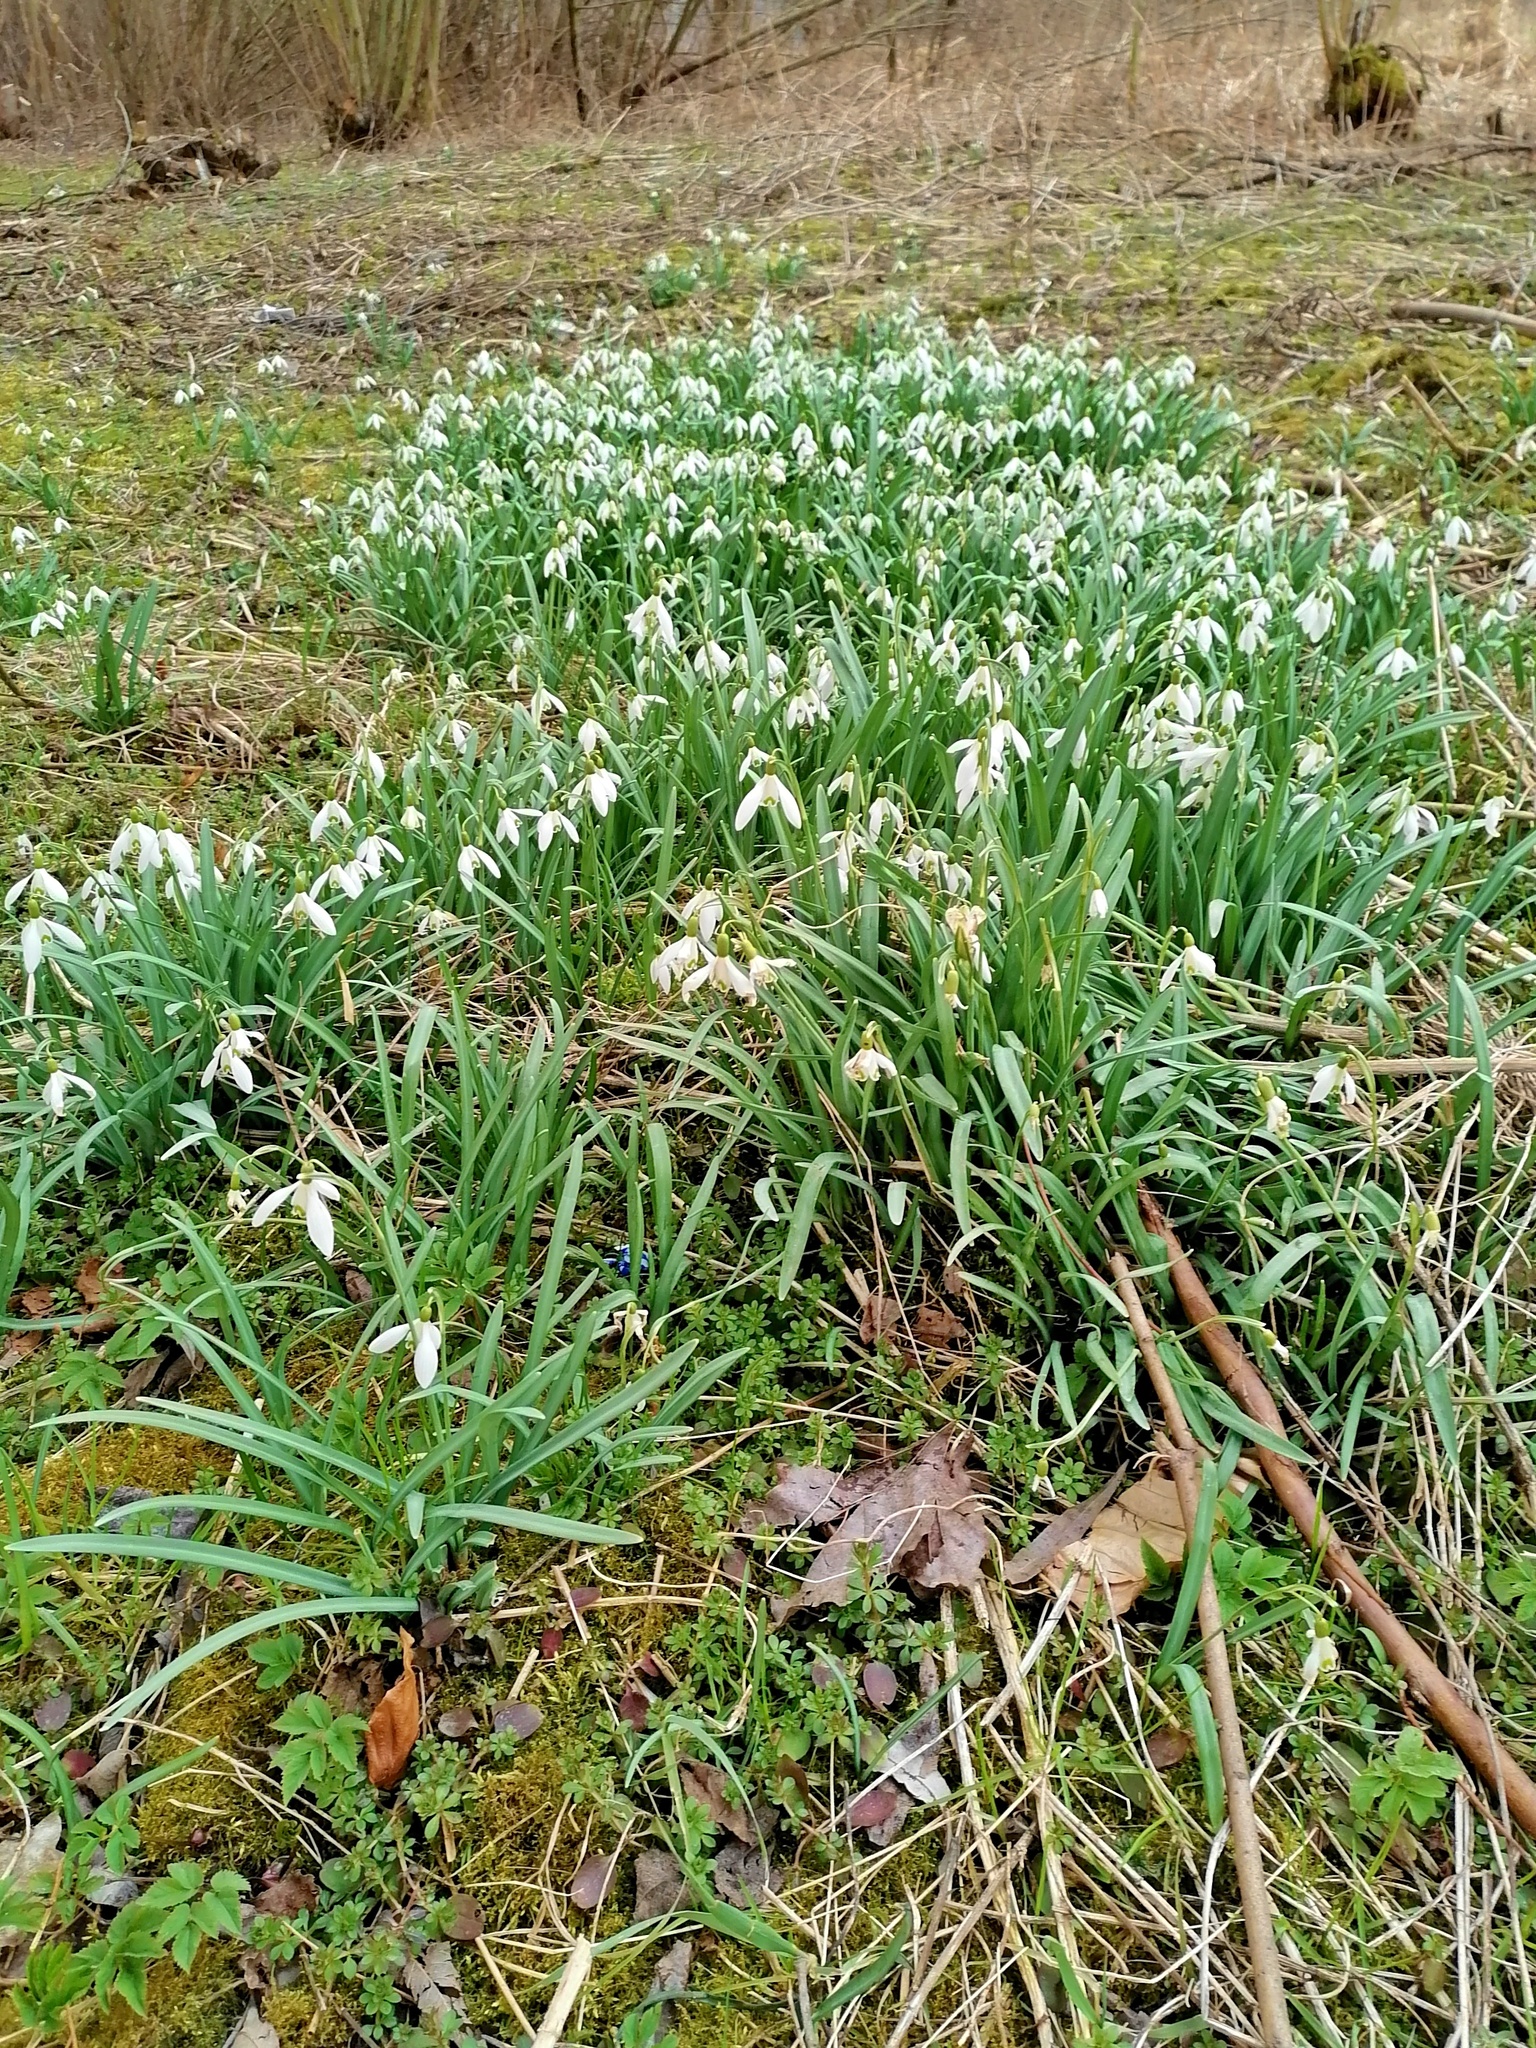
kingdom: Plantae
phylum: Tracheophyta
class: Liliopsida
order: Asparagales
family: Amaryllidaceae
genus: Galanthus
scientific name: Galanthus nivalis
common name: Snowdrop
